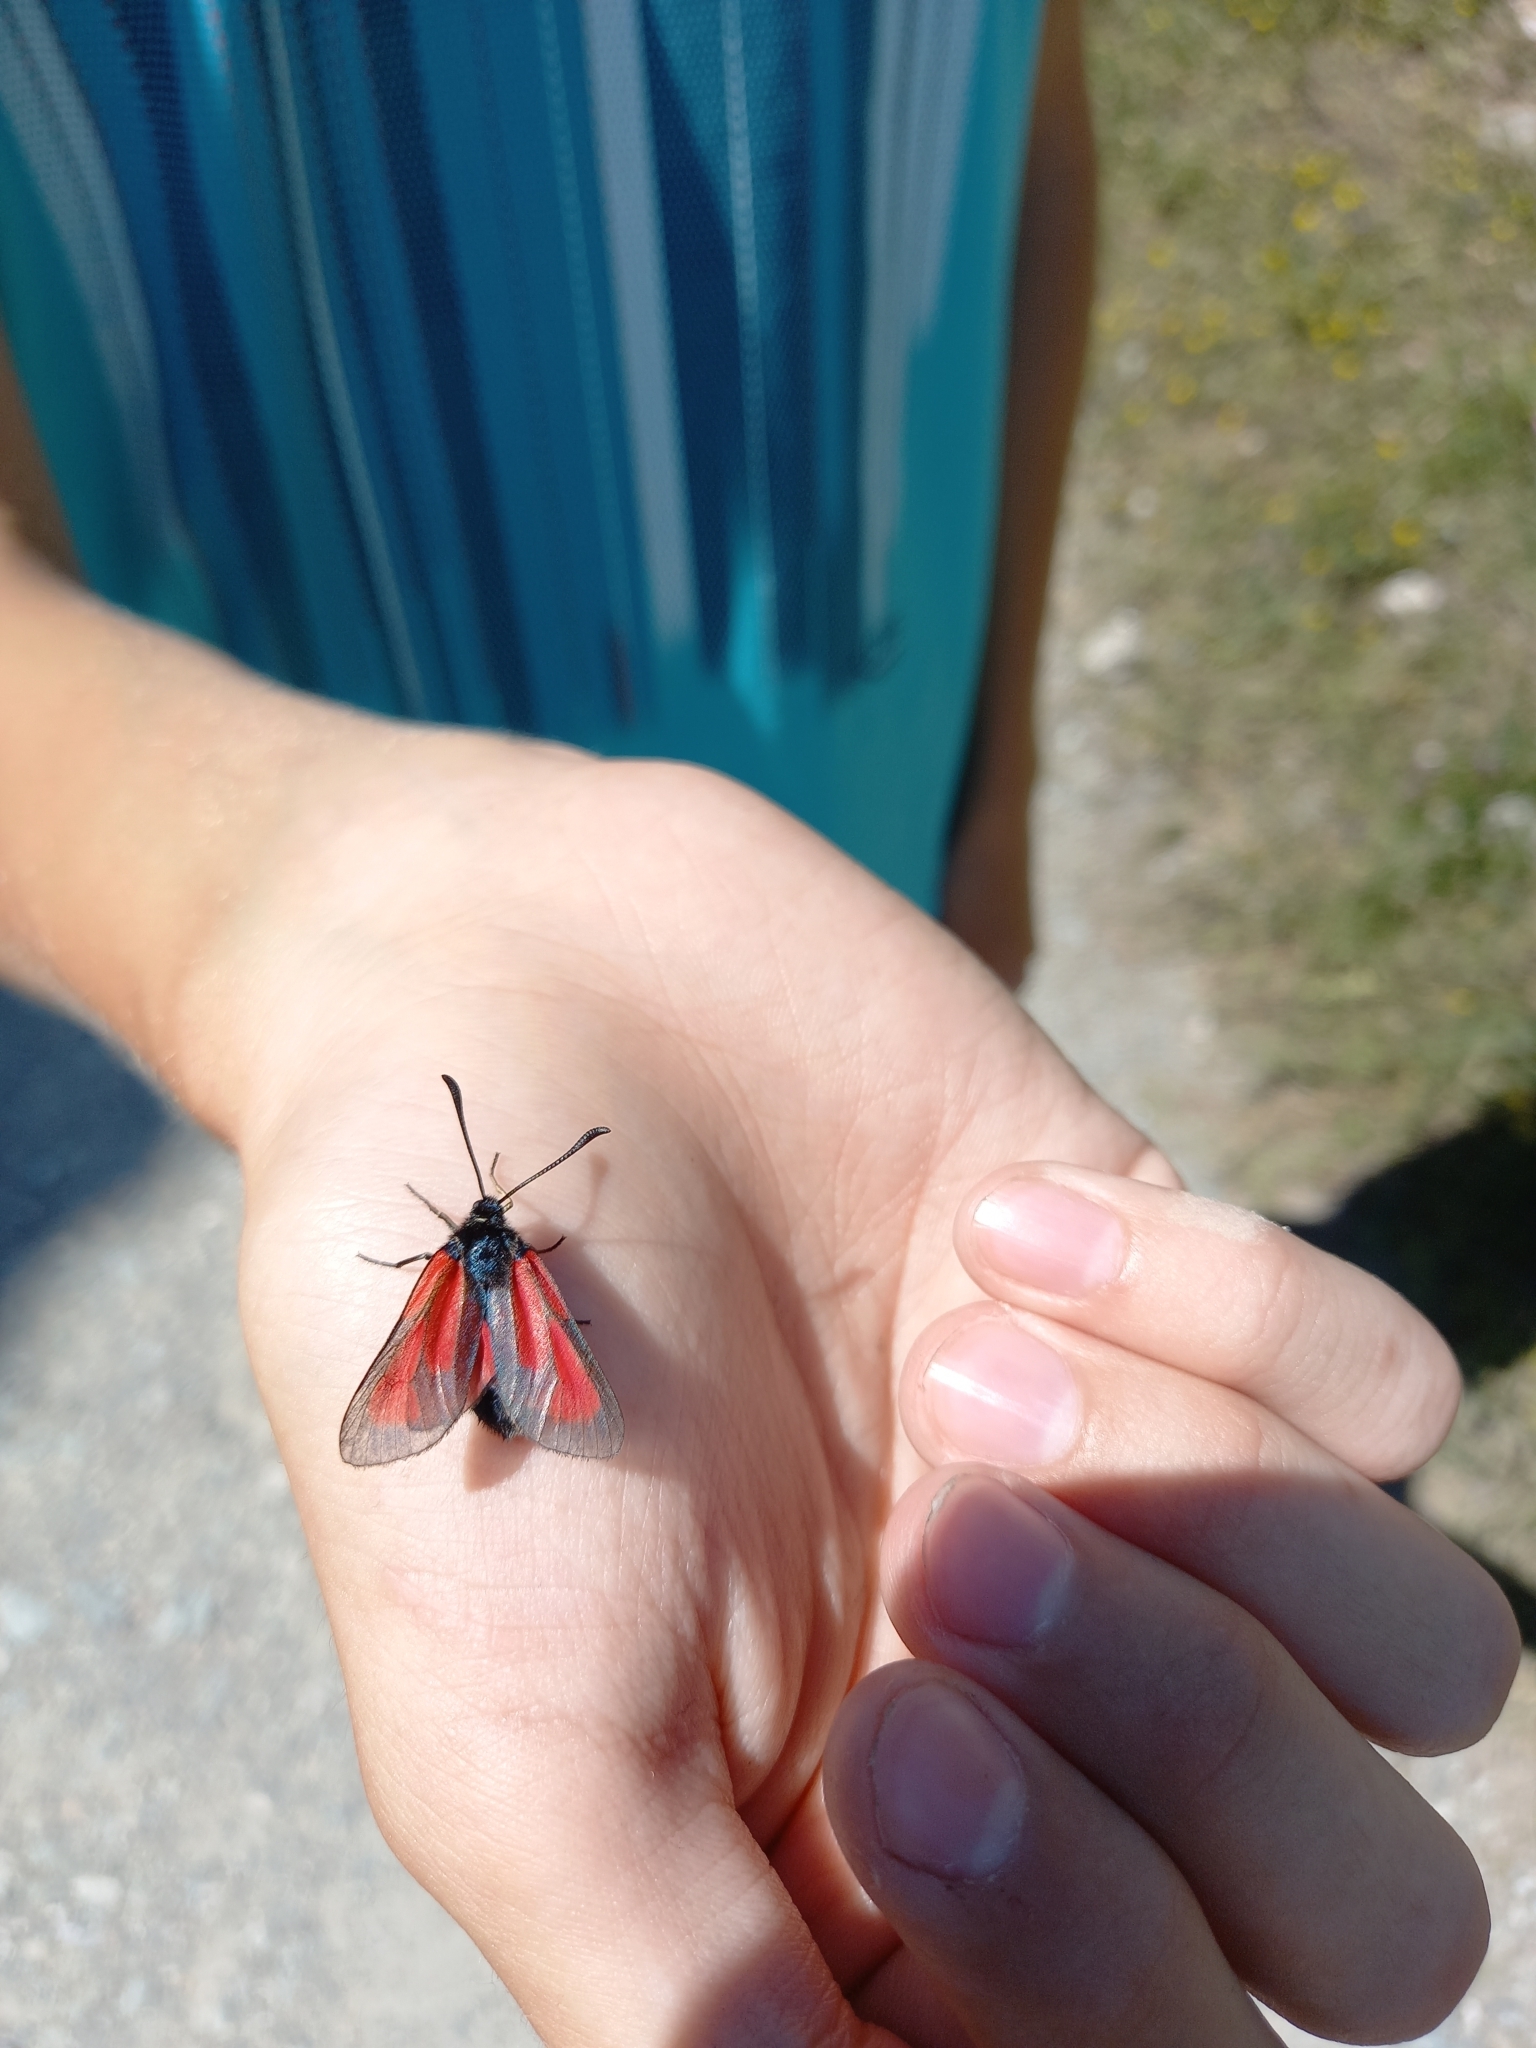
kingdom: Animalia
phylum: Arthropoda
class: Insecta
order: Lepidoptera
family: Zygaenidae
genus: Zygaena
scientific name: Zygaena purpuralis
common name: Transparent burnet
